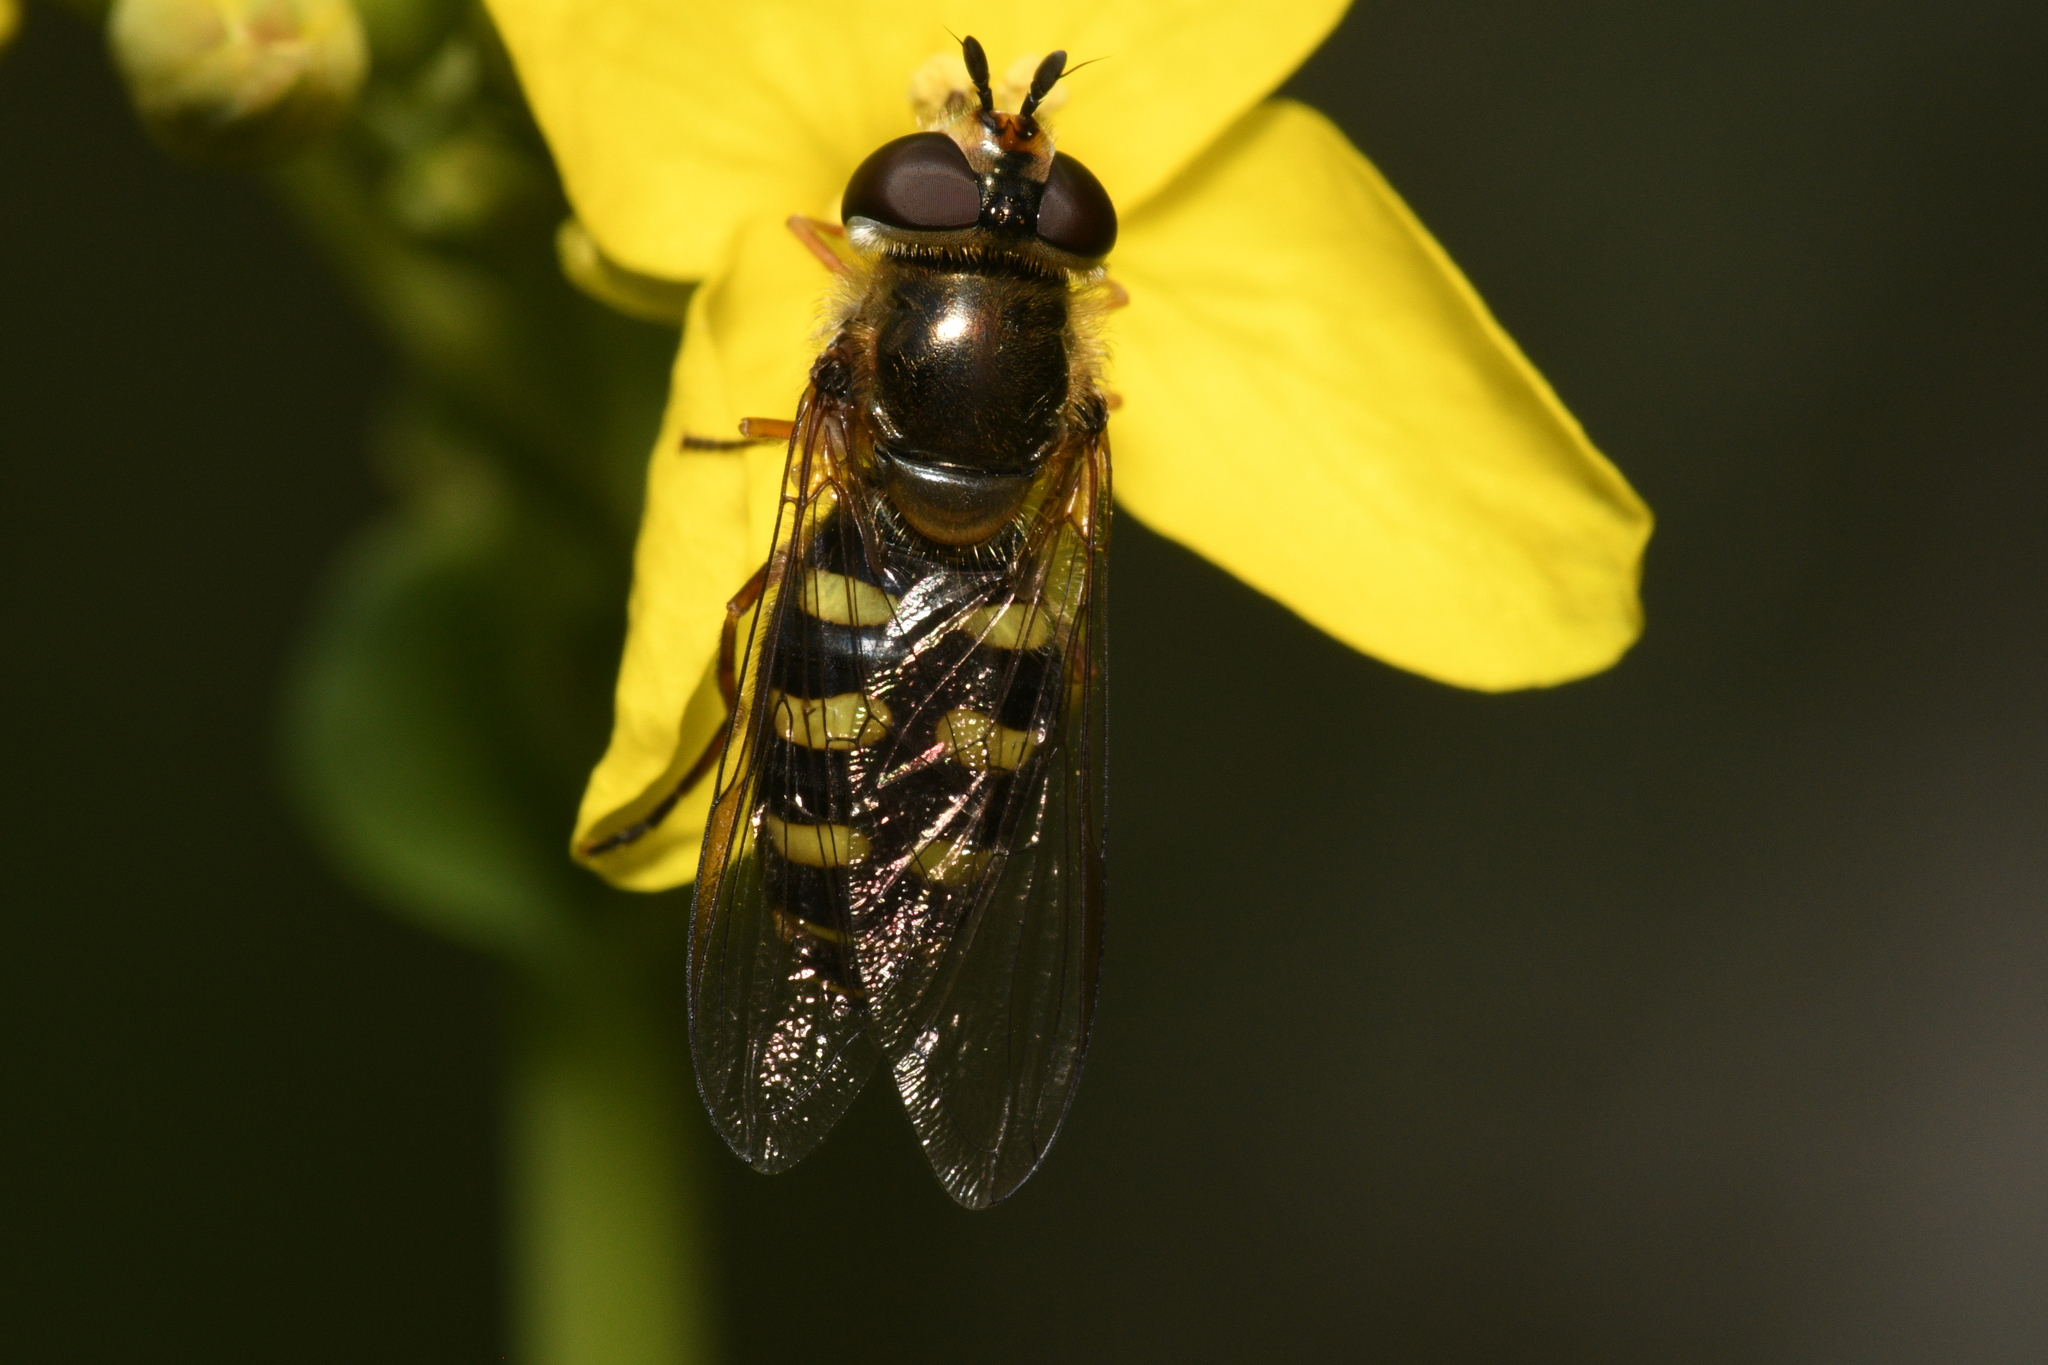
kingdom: Animalia
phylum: Arthropoda
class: Insecta
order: Diptera
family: Syrphidae
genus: Eupeodes
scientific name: Eupeodes luniger
